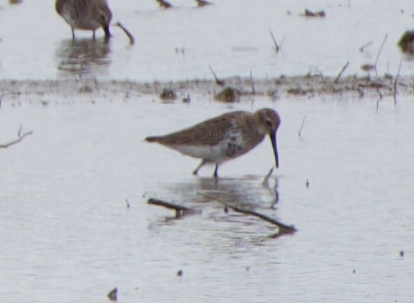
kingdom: Animalia
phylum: Chordata
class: Aves
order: Charadriiformes
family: Scolopacidae
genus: Calidris
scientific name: Calidris alpina
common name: Dunlin
